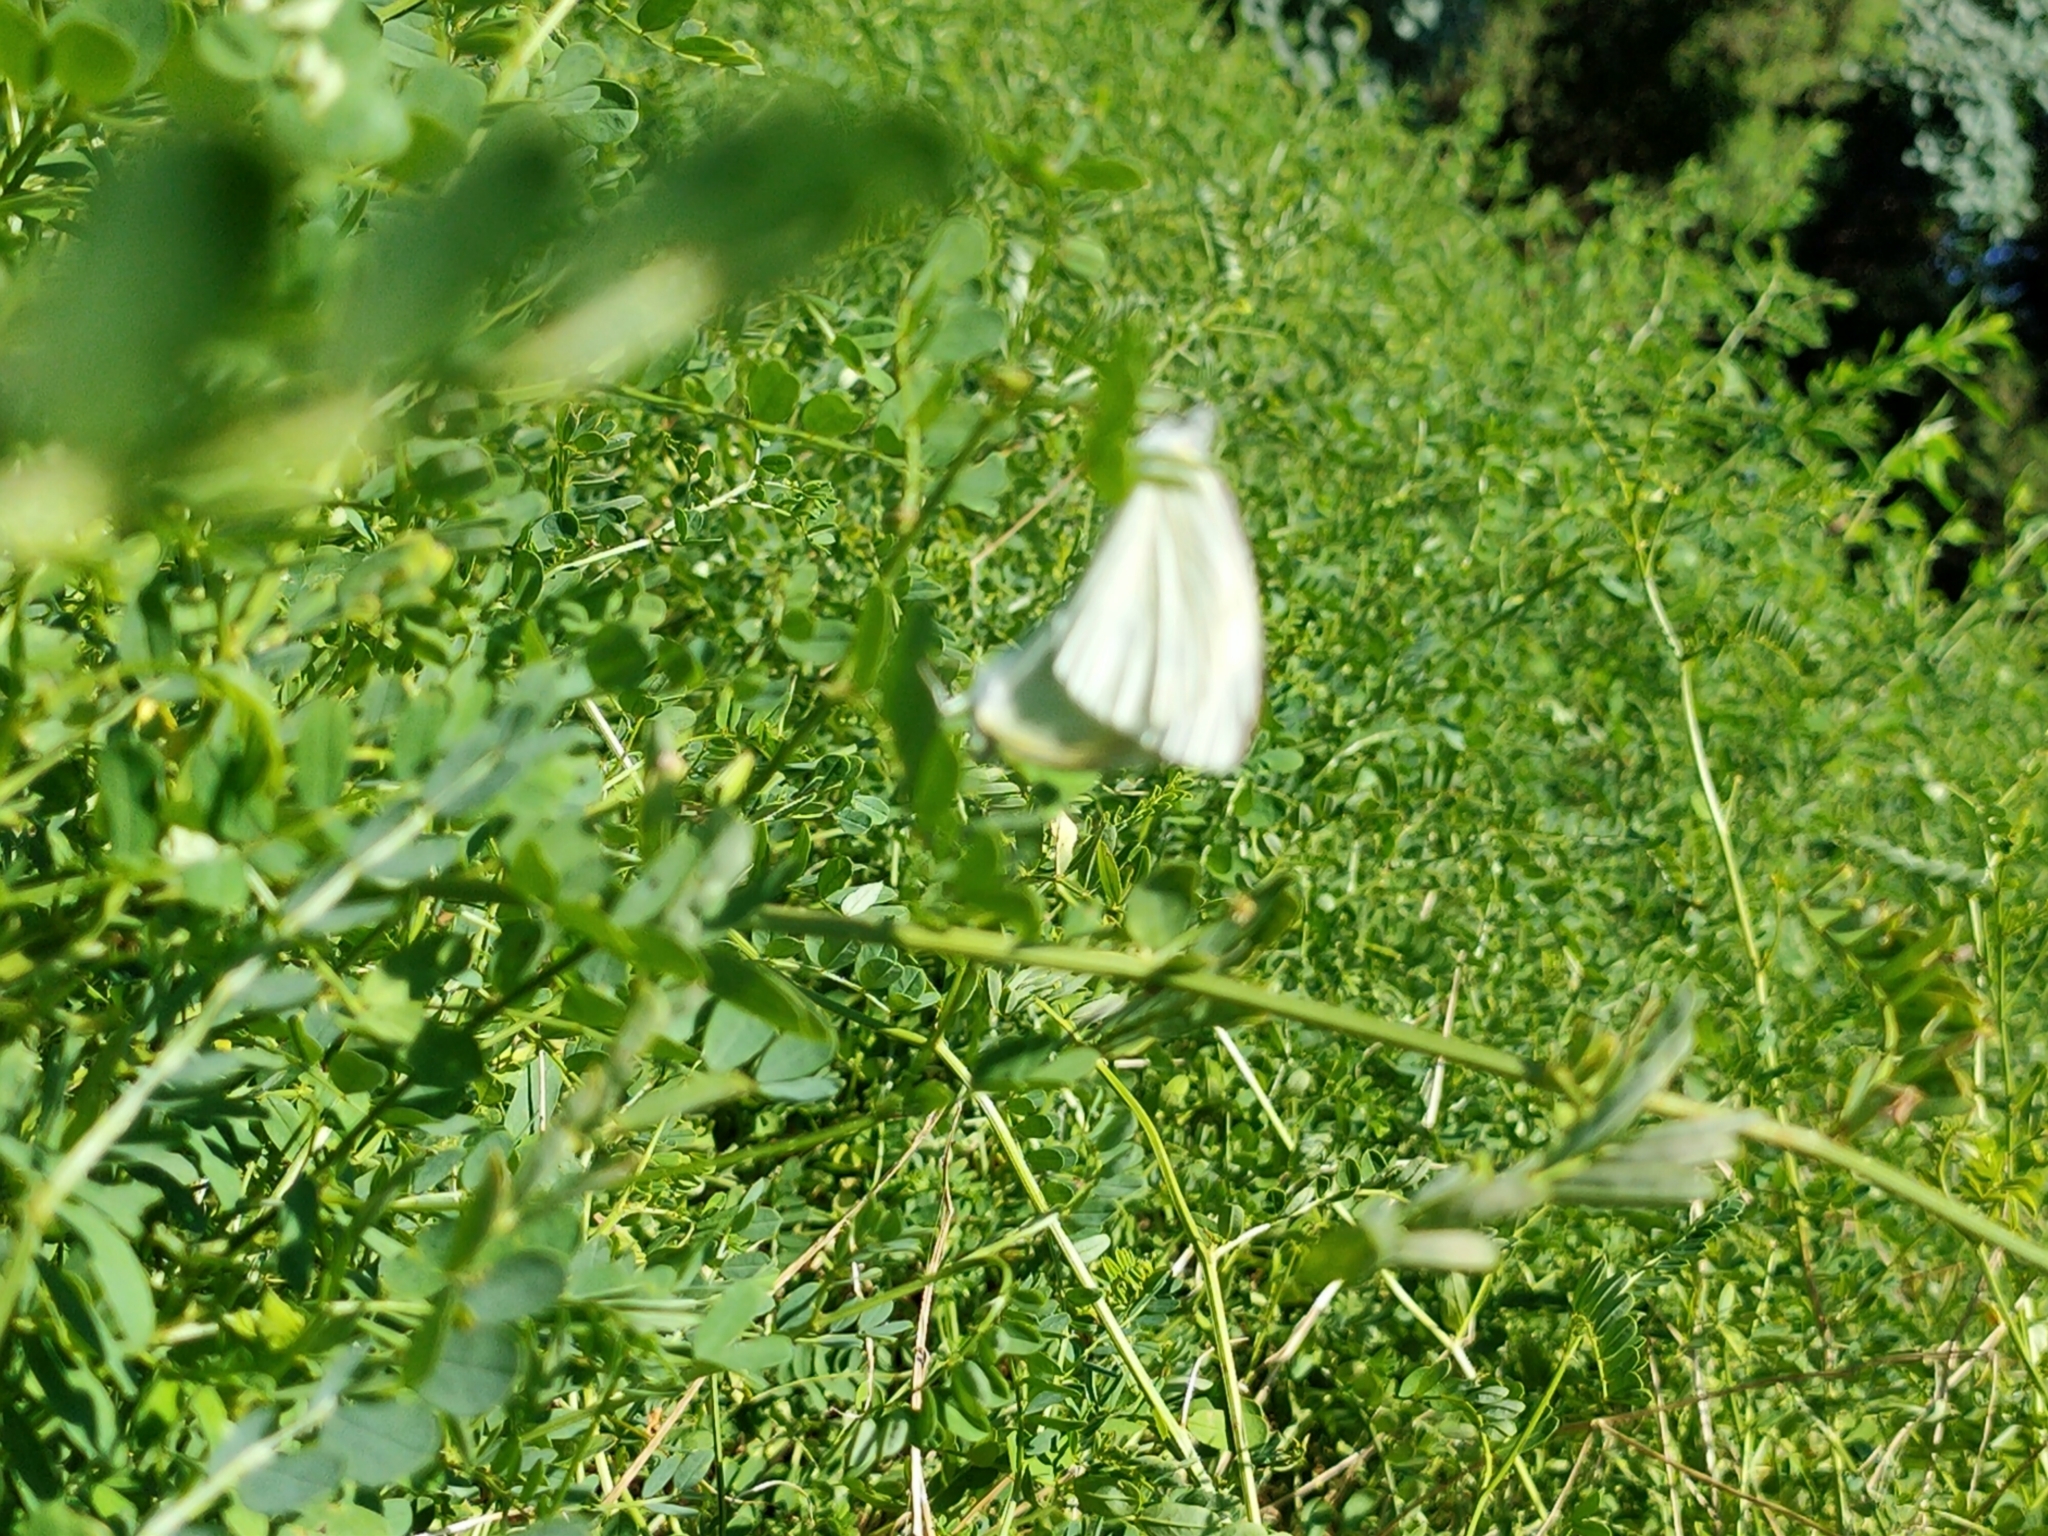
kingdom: Animalia
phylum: Arthropoda
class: Insecta
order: Lepidoptera
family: Pieridae
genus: Pieris
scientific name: Pieris rapae
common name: Small white
